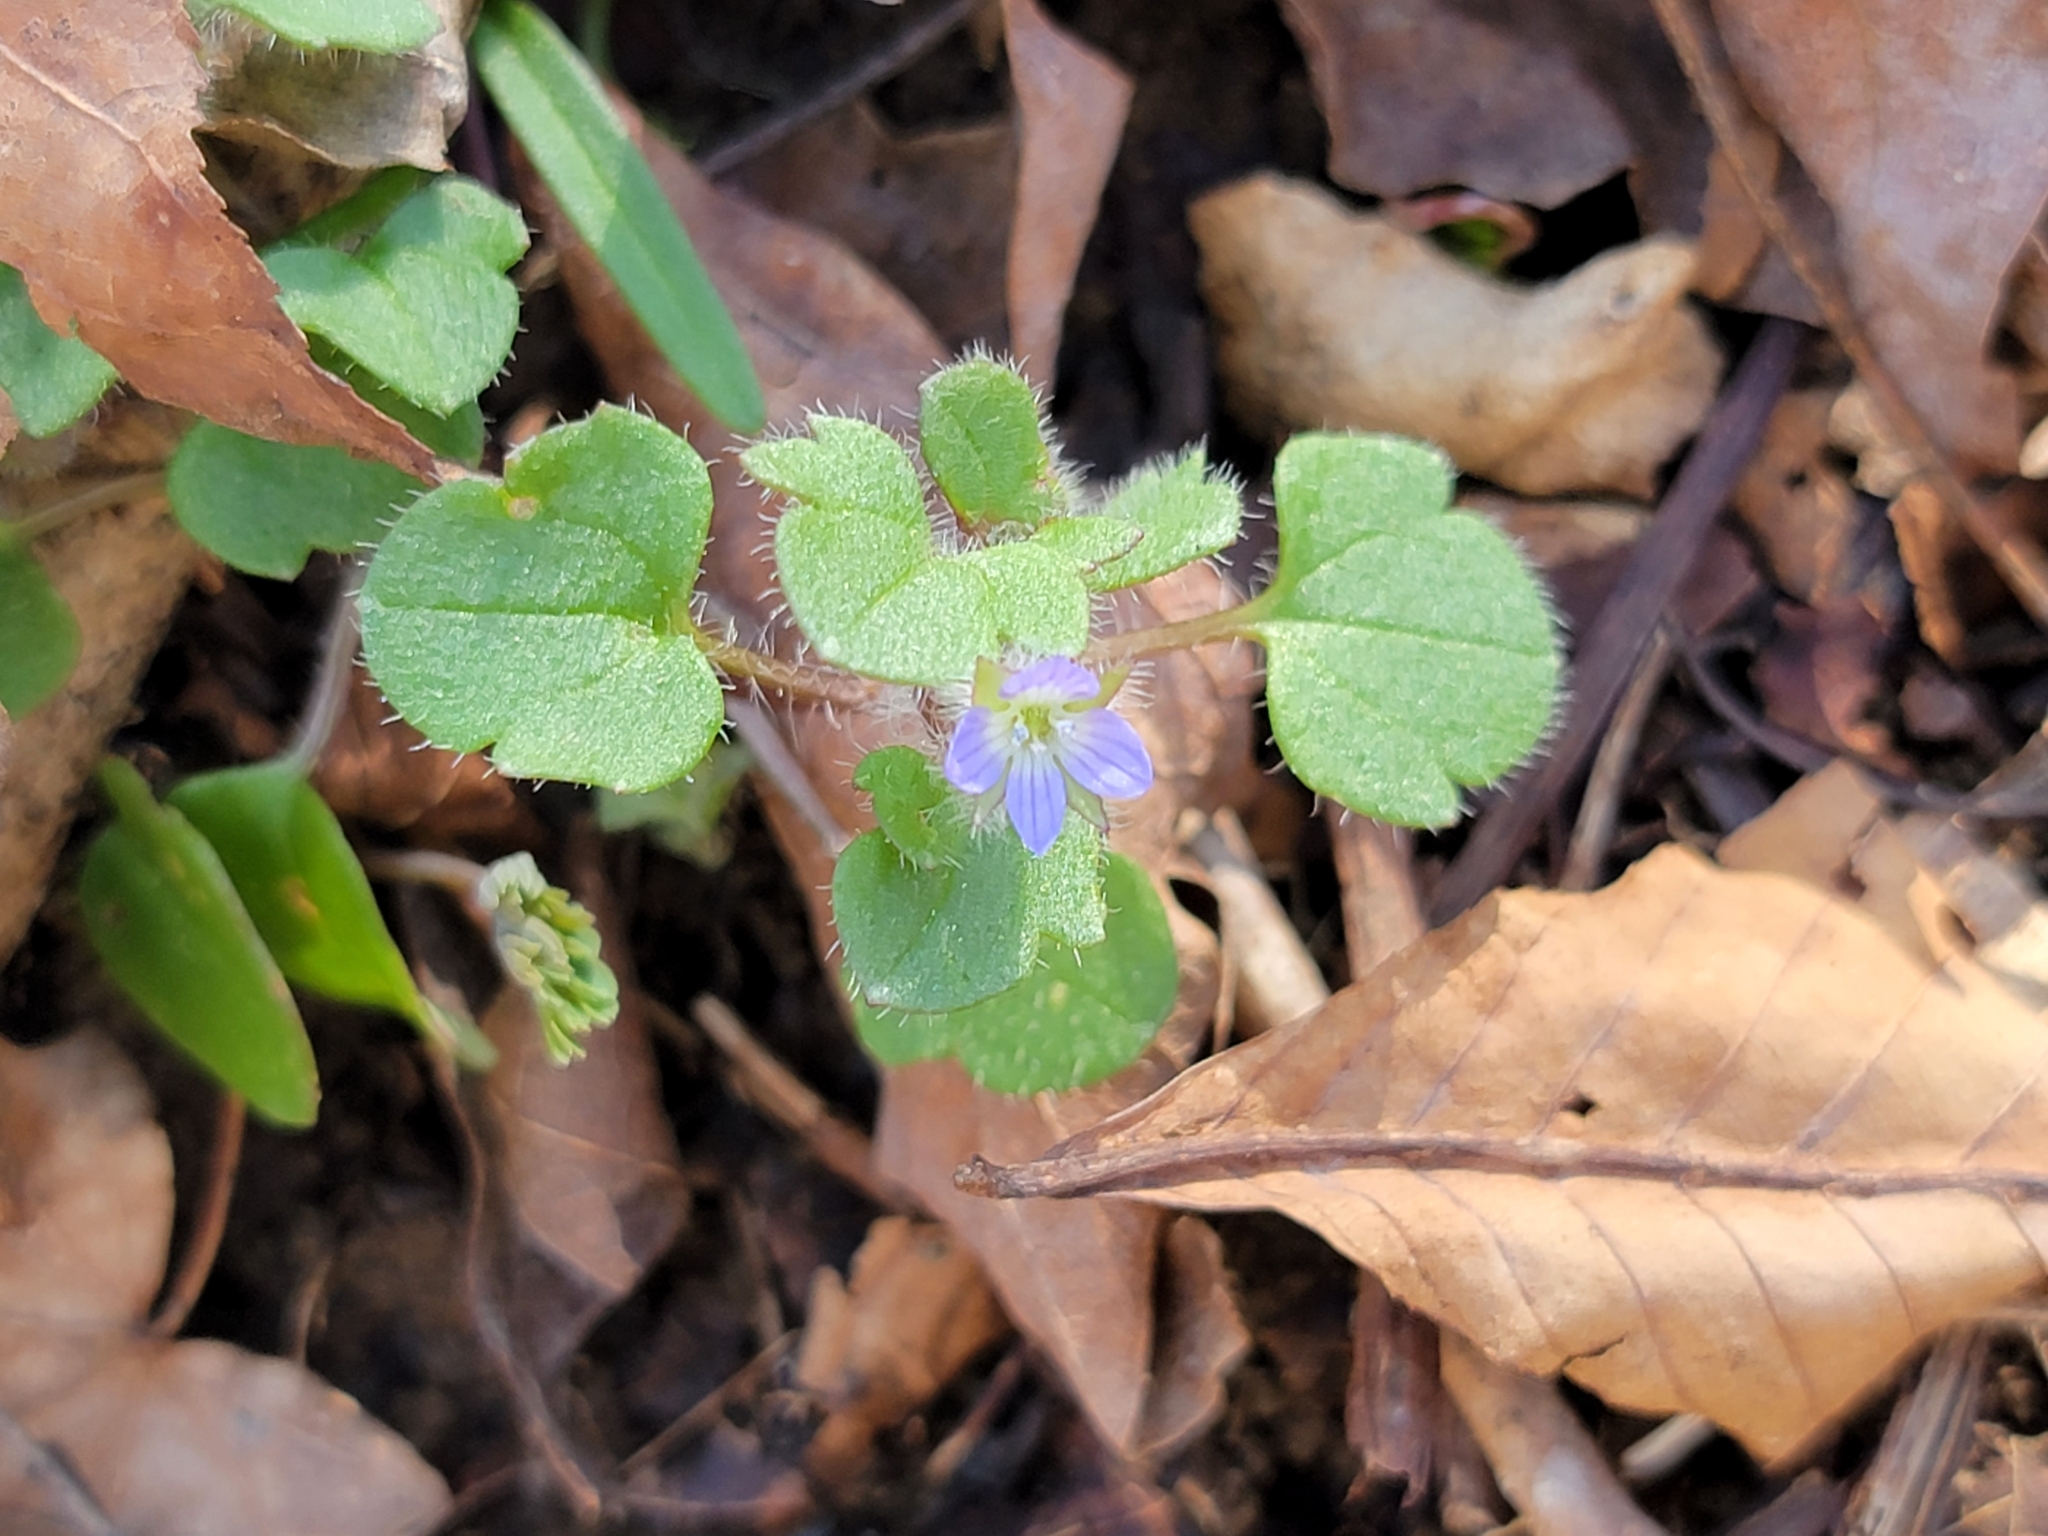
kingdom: Plantae
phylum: Tracheophyta
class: Magnoliopsida
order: Lamiales
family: Plantaginaceae
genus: Veronica
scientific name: Veronica hederifolia
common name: Ivy-leaved speedwell
